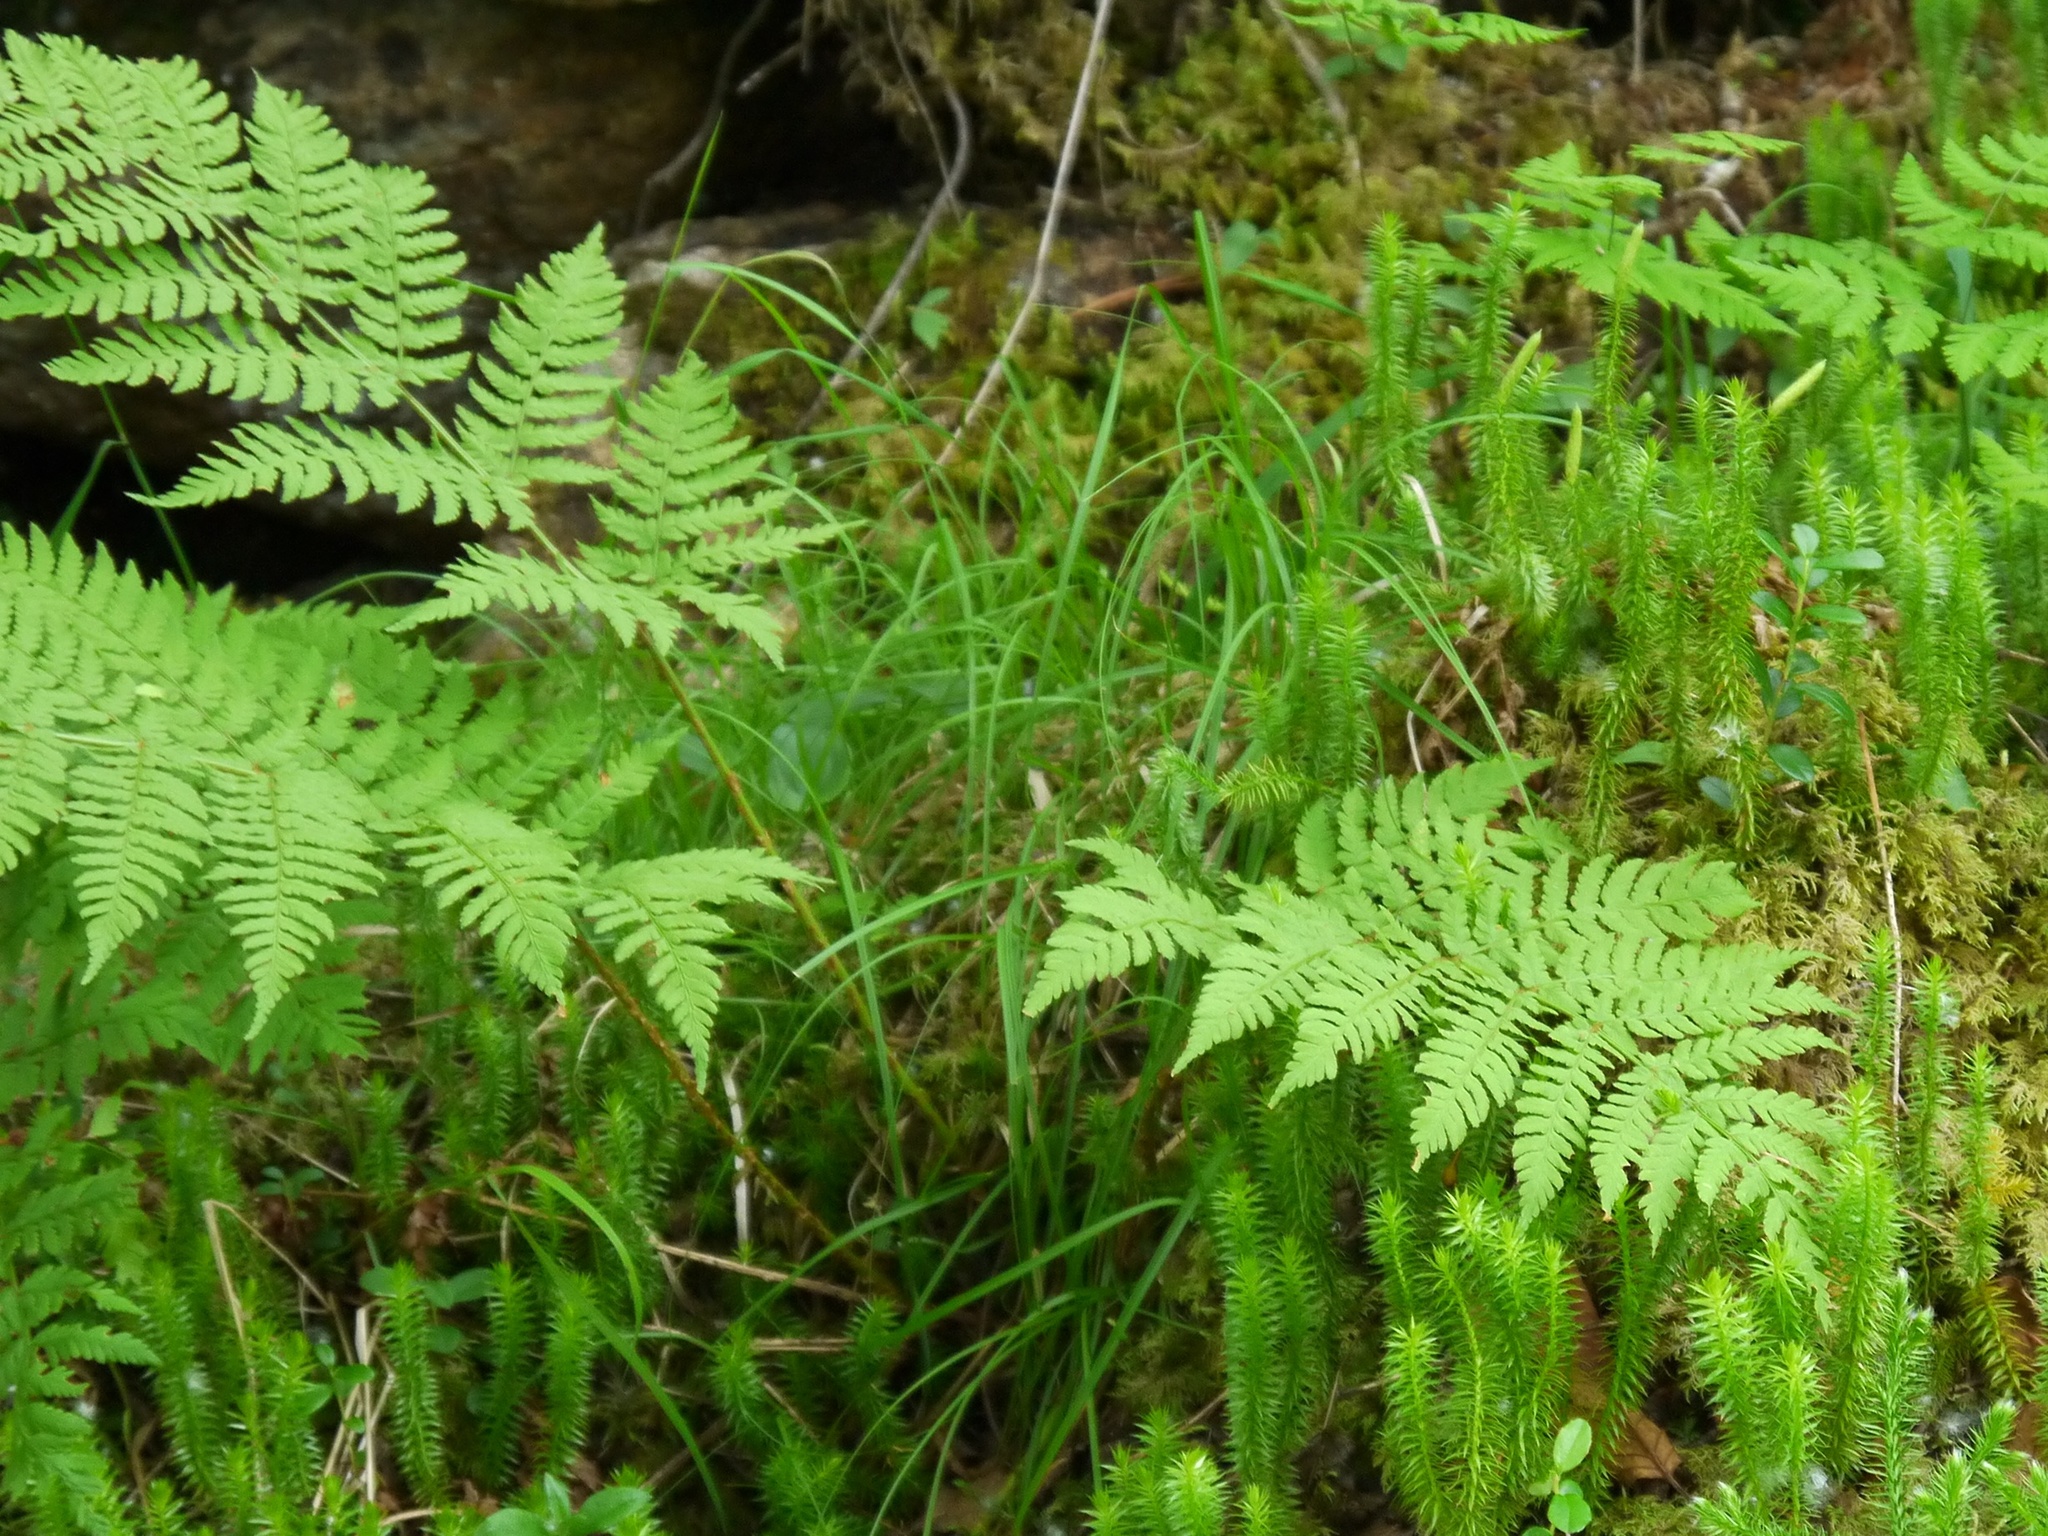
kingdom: Plantae
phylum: Tracheophyta
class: Polypodiopsida
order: Polypodiales
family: Dryopteridaceae
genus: Dryopteris
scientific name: Dryopteris expansa
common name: Northern buckler fern
